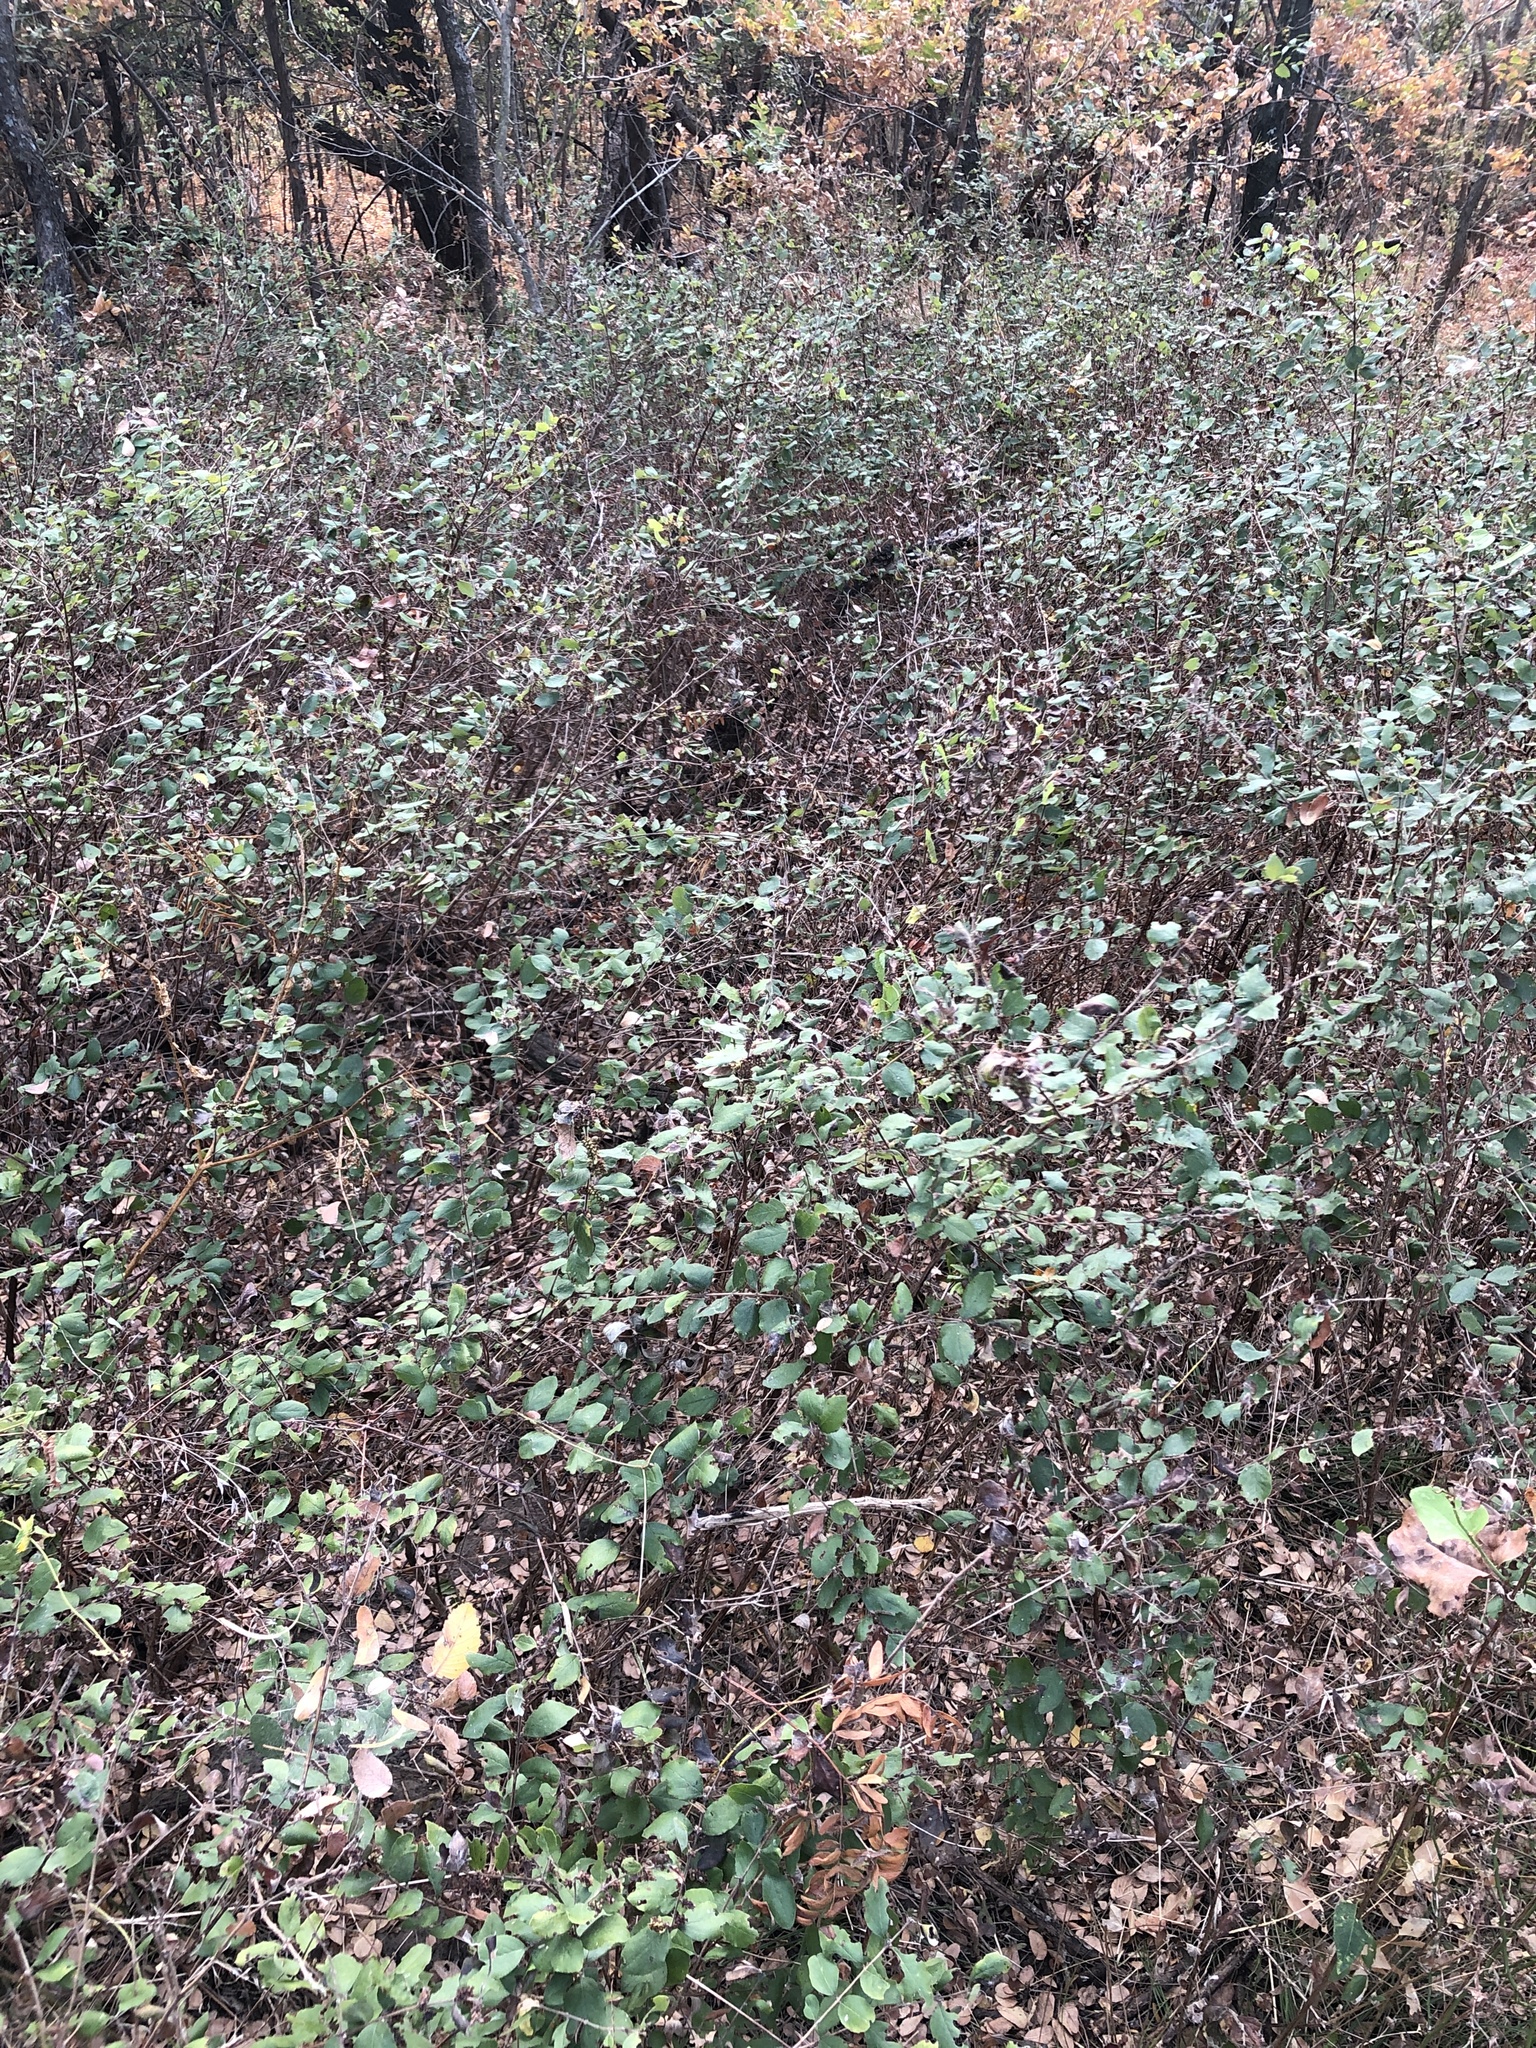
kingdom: Plantae
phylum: Tracheophyta
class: Magnoliopsida
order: Dipsacales
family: Caprifoliaceae
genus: Symphoricarpos
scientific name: Symphoricarpos orbiculatus
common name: Coralberry
